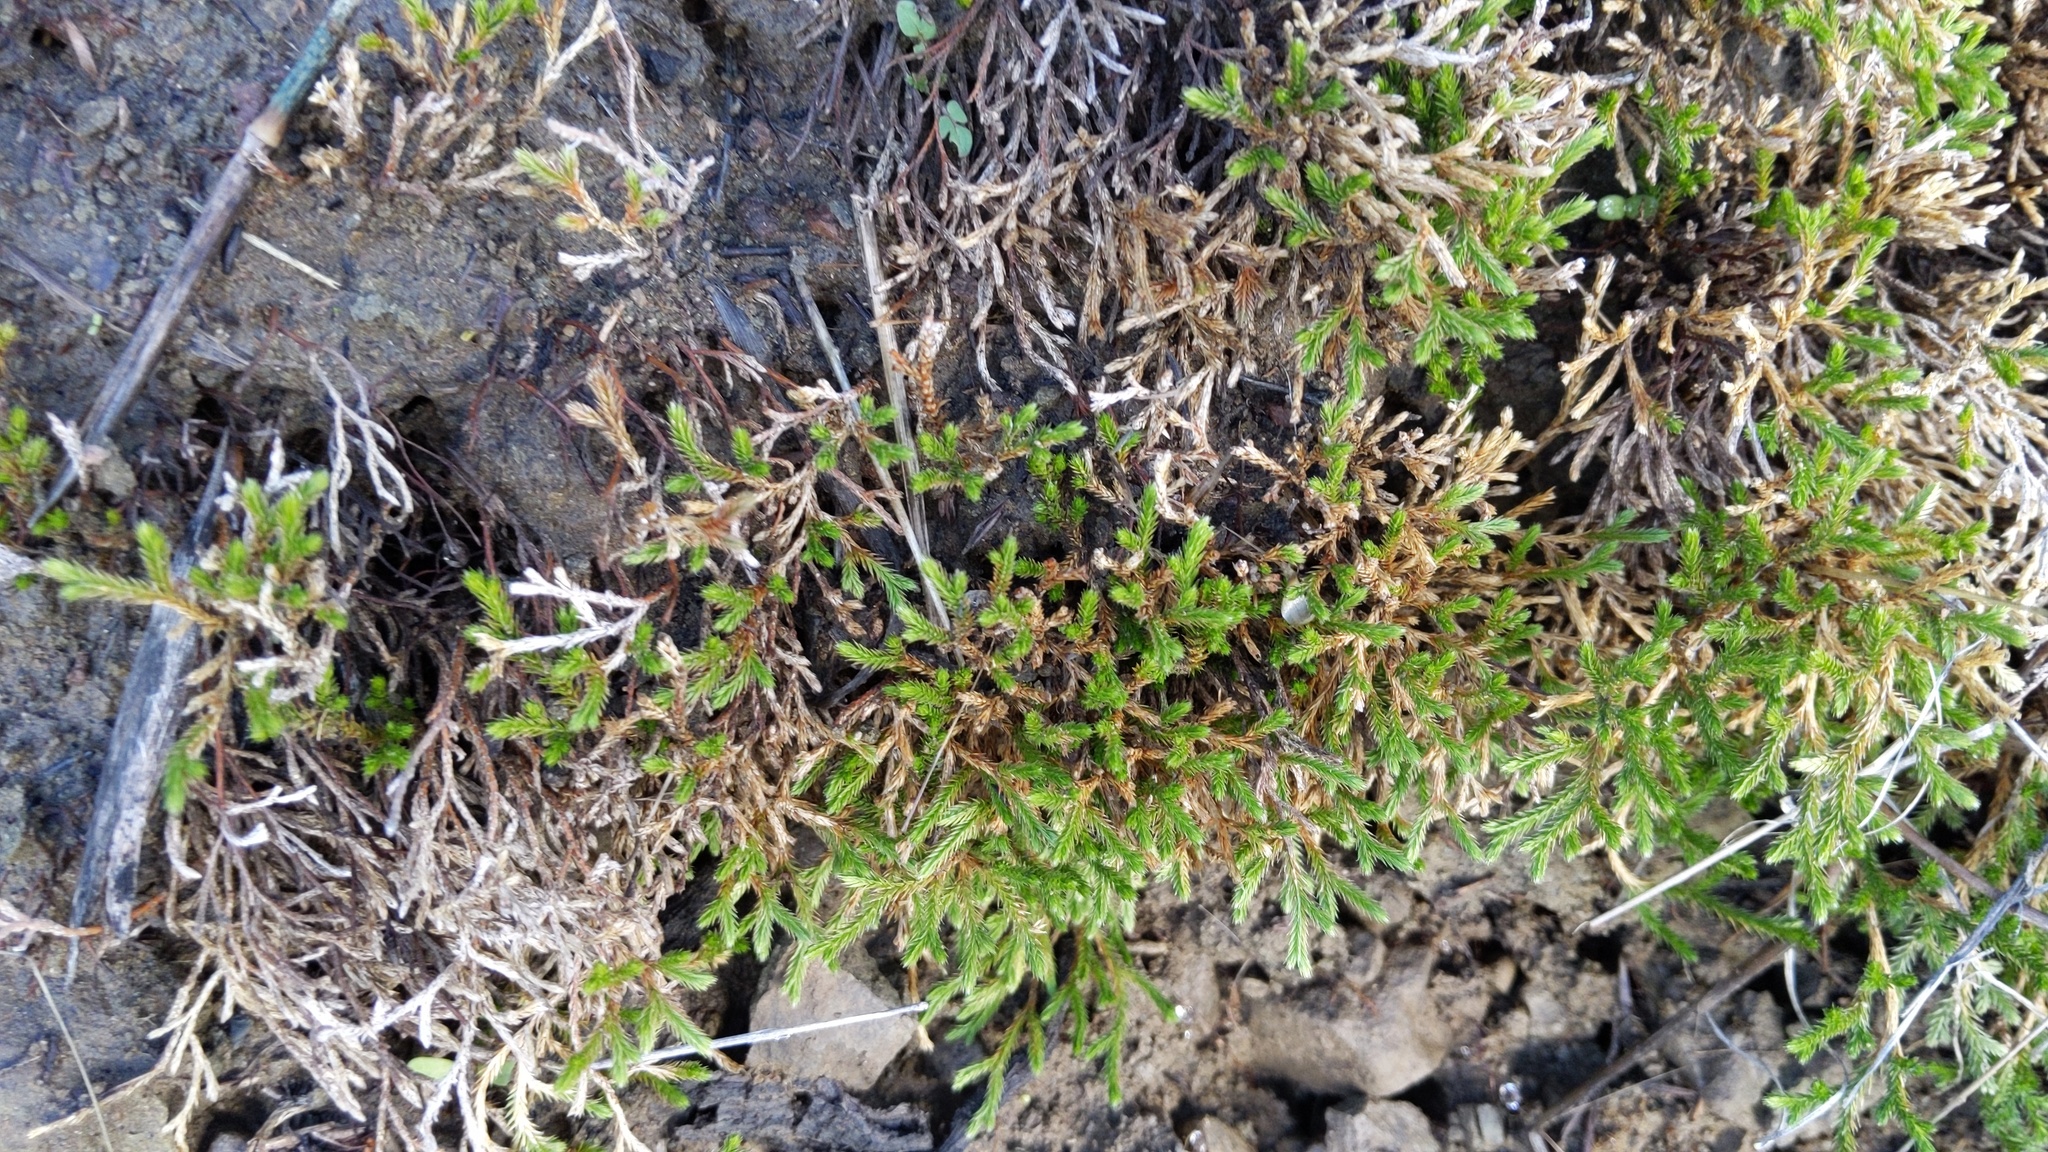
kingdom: Plantae
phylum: Tracheophyta
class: Lycopodiopsida
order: Selaginellales
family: Selaginellaceae
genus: Selaginella
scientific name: Selaginella bigelovii
